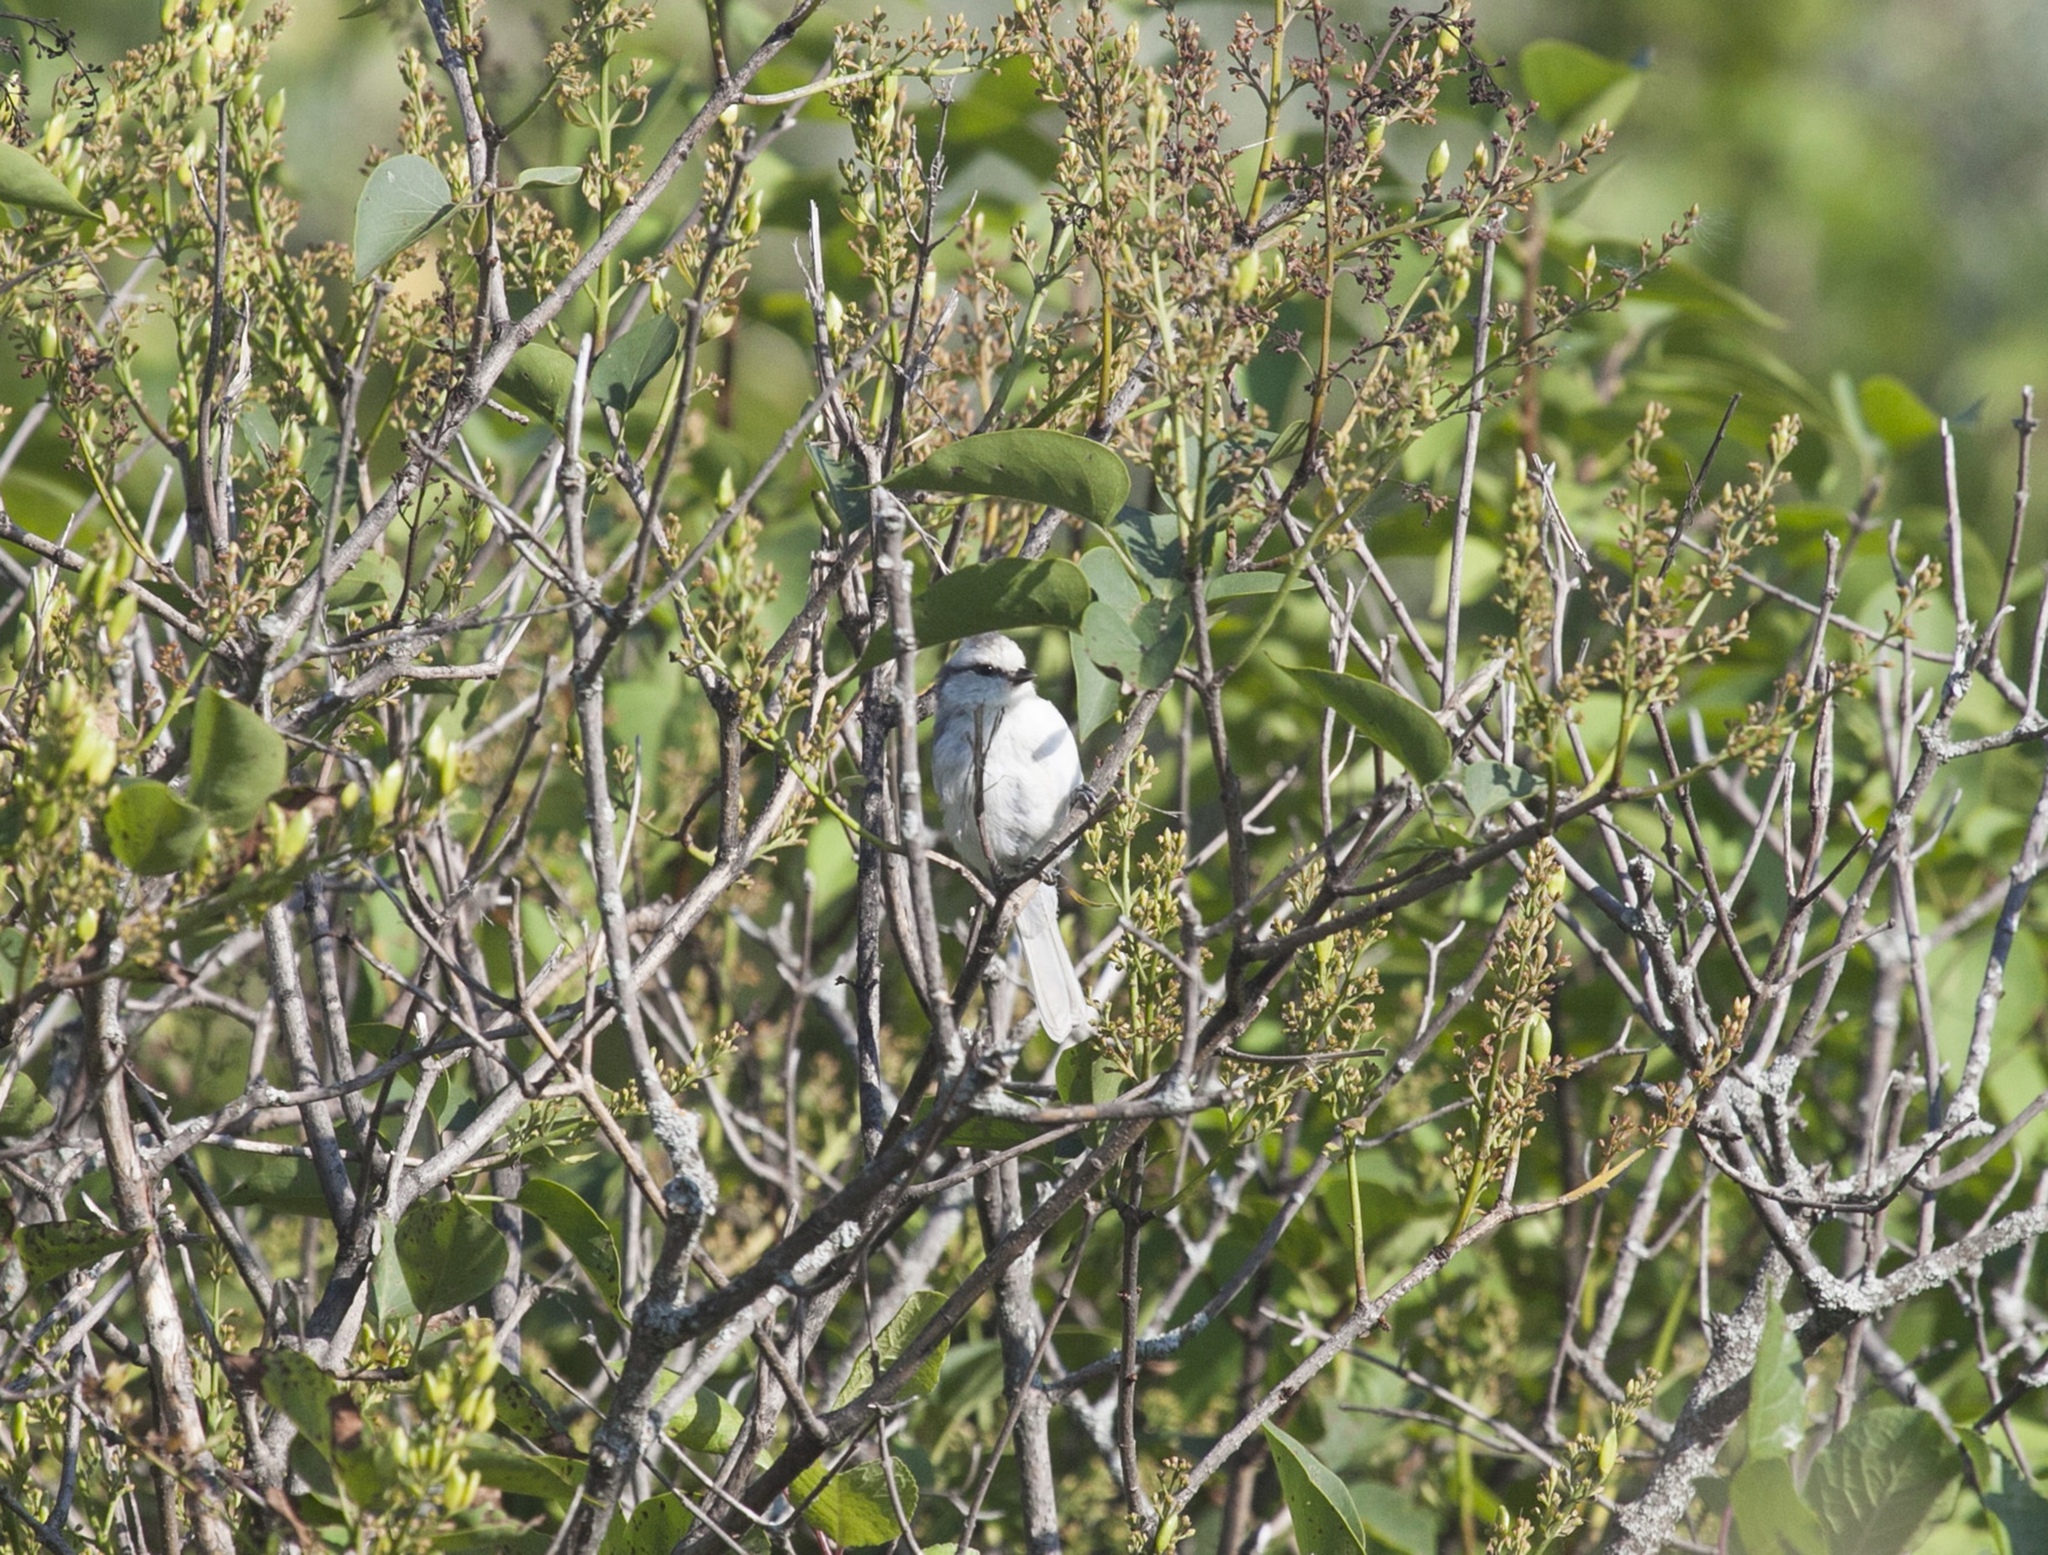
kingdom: Animalia
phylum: Chordata
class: Aves
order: Passeriformes
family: Paridae
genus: Cyanistes
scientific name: Cyanistes cyanus
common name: Azure tit
